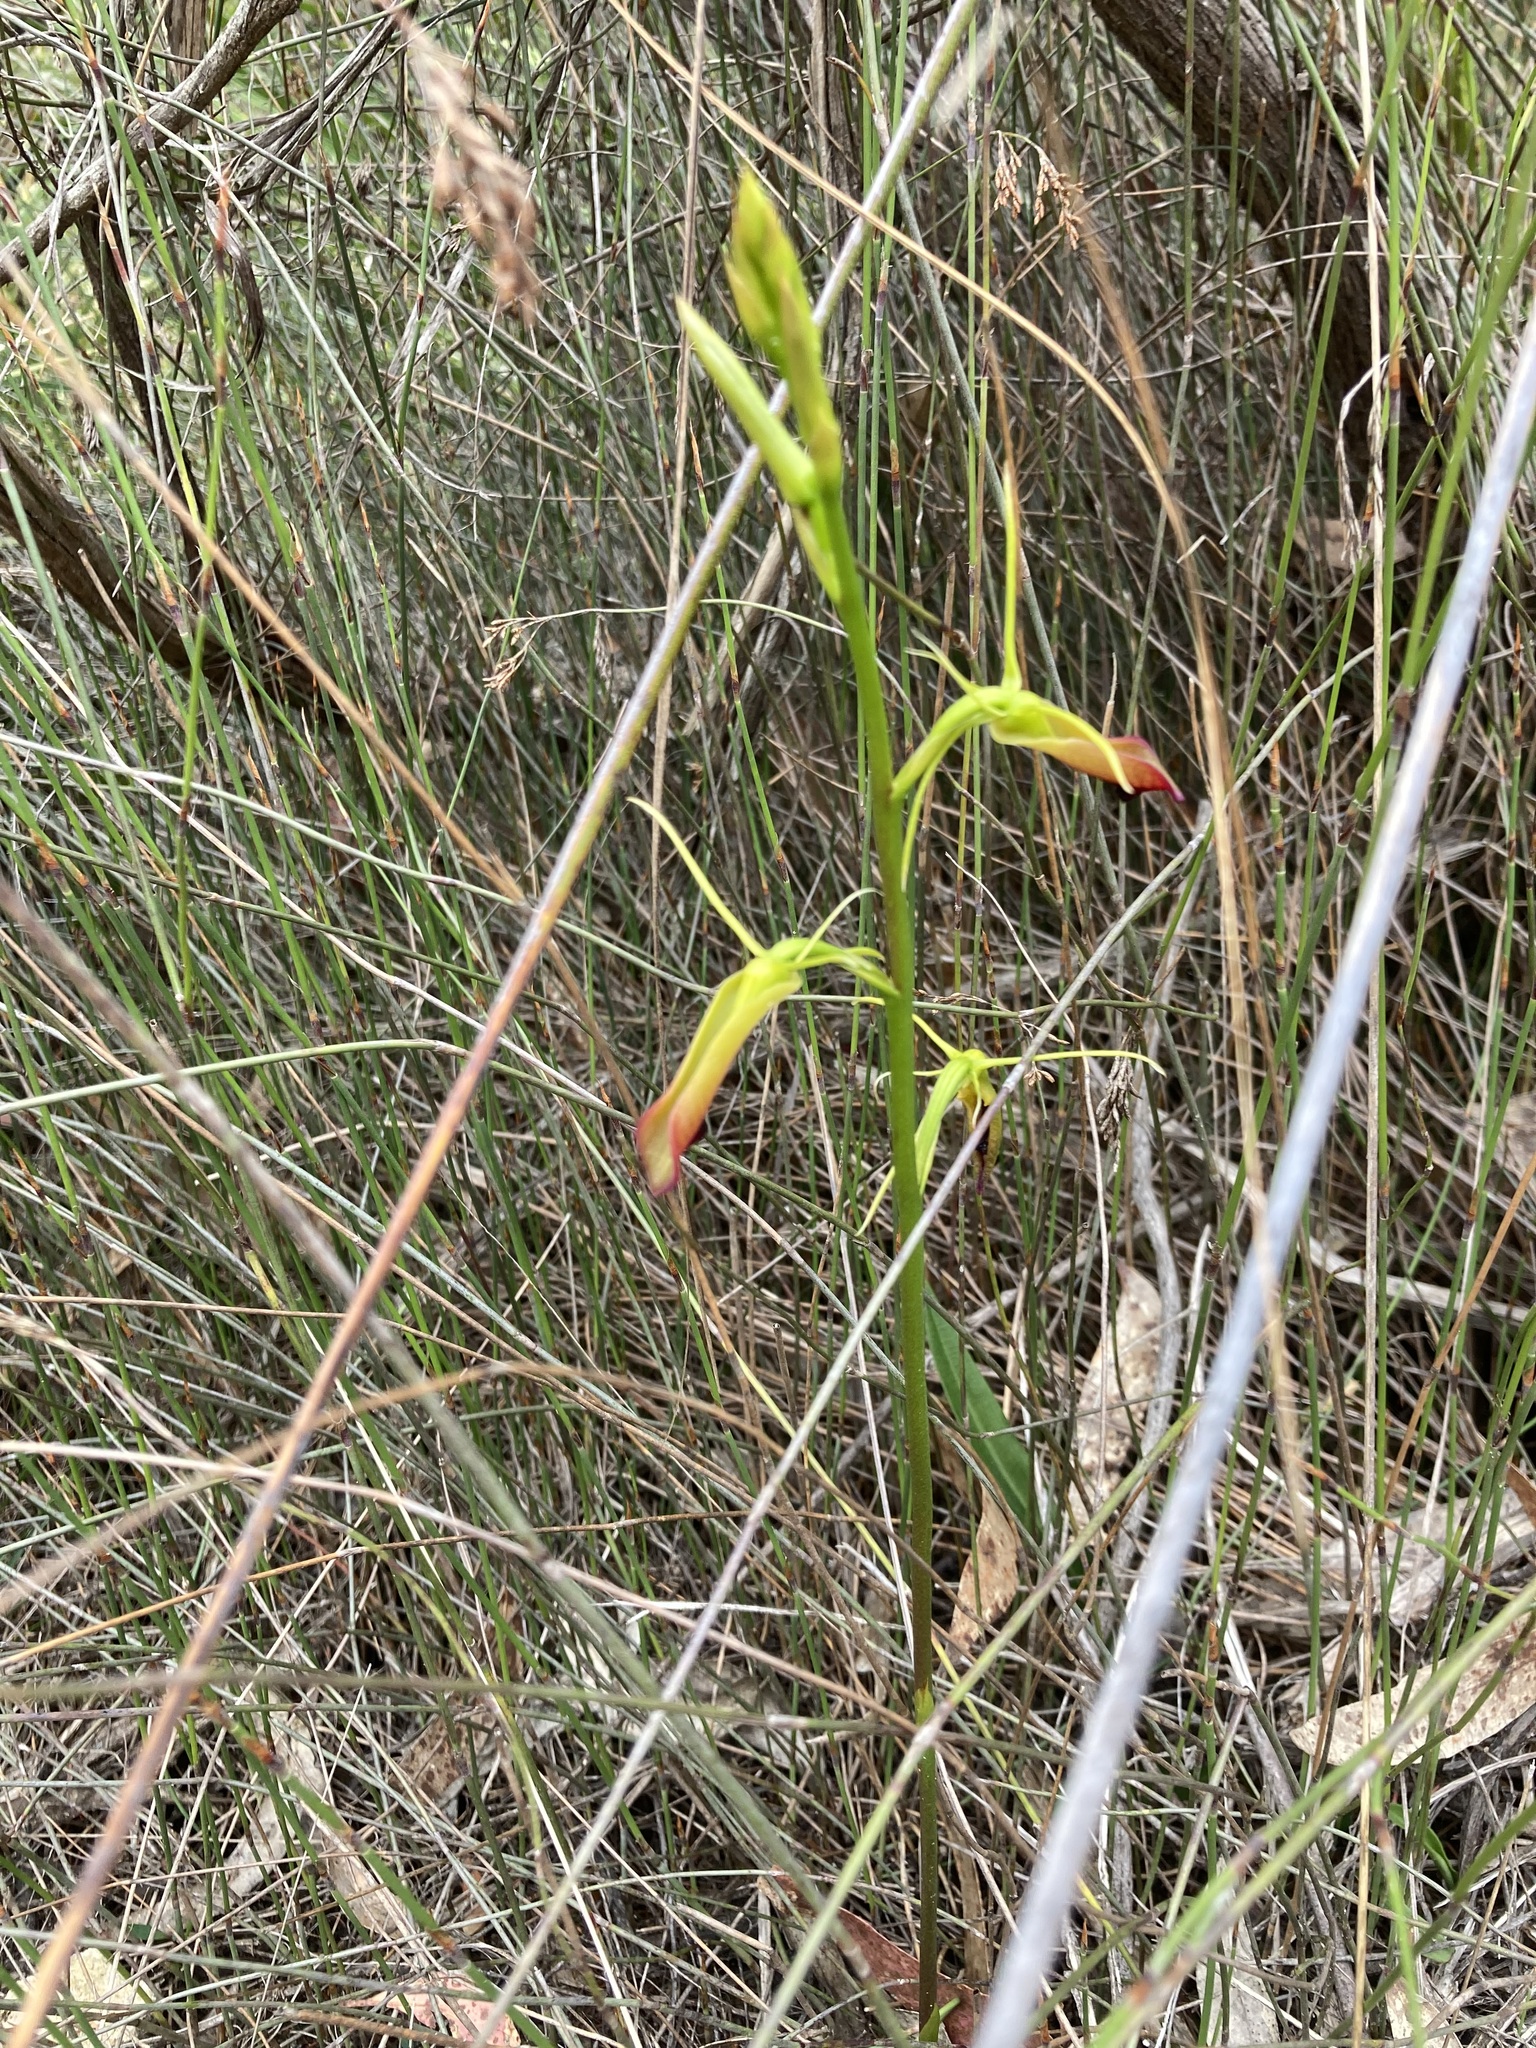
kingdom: Plantae
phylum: Tracheophyta
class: Liliopsida
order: Asparagales
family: Orchidaceae
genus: Cryptostylis
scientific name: Cryptostylis subulata
